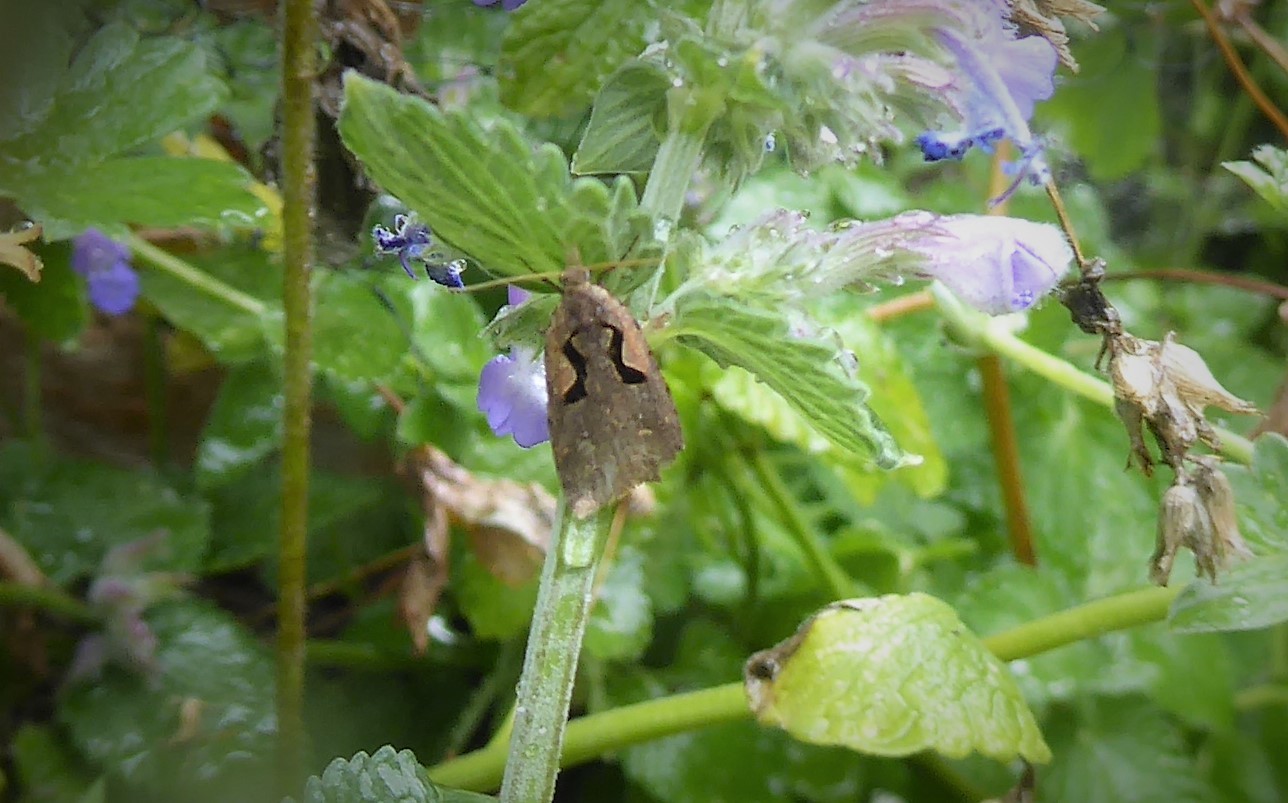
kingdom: Animalia
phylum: Arthropoda
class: Insecta
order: Lepidoptera
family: Tortricidae
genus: Cnephasia
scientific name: Cnephasia jactatana
